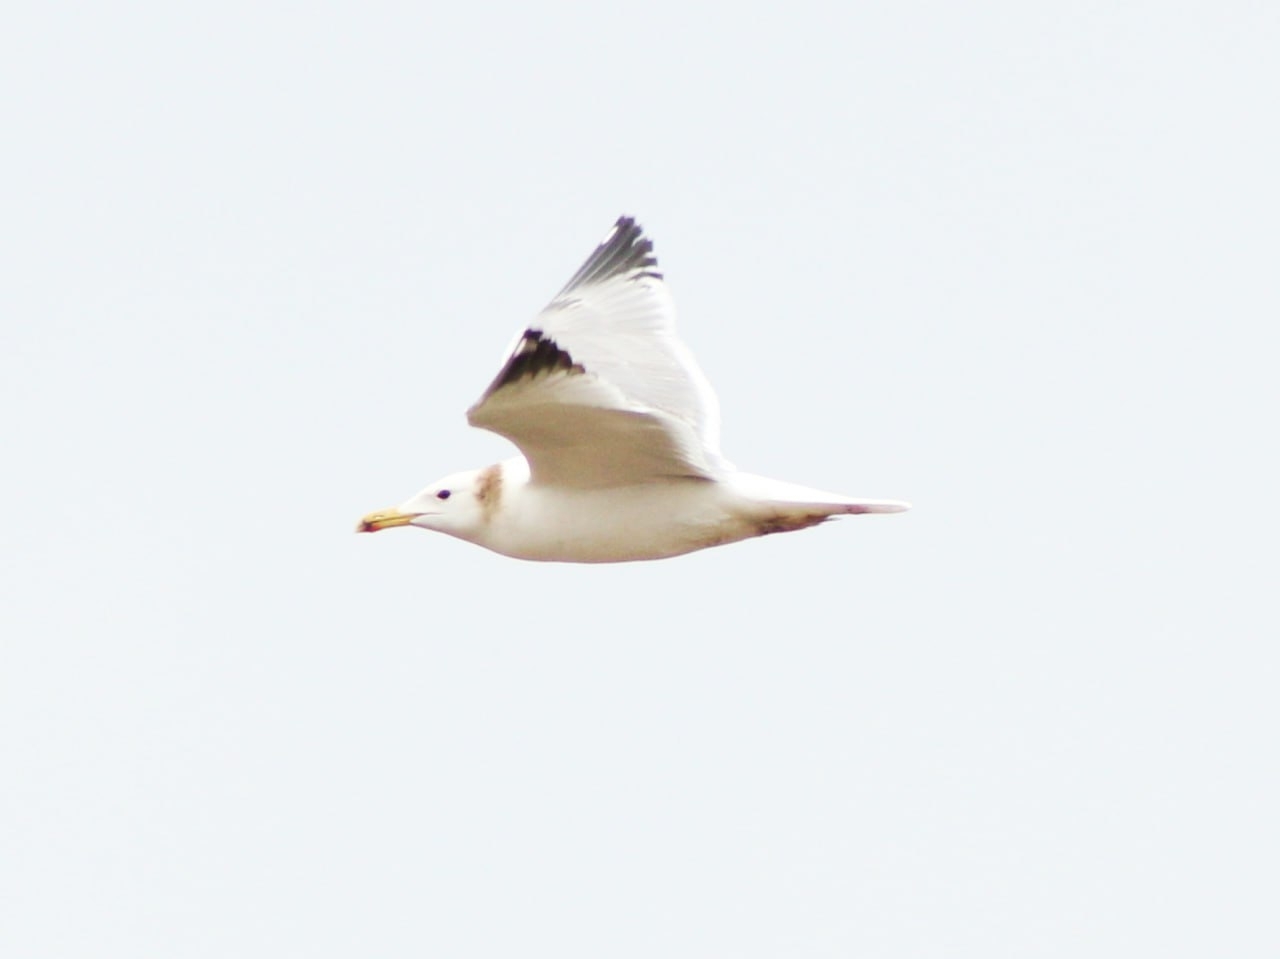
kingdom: Animalia
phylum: Chordata
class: Aves
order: Charadriiformes
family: Laridae
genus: Larus
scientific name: Larus fuscus
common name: Lesser black-backed gull
